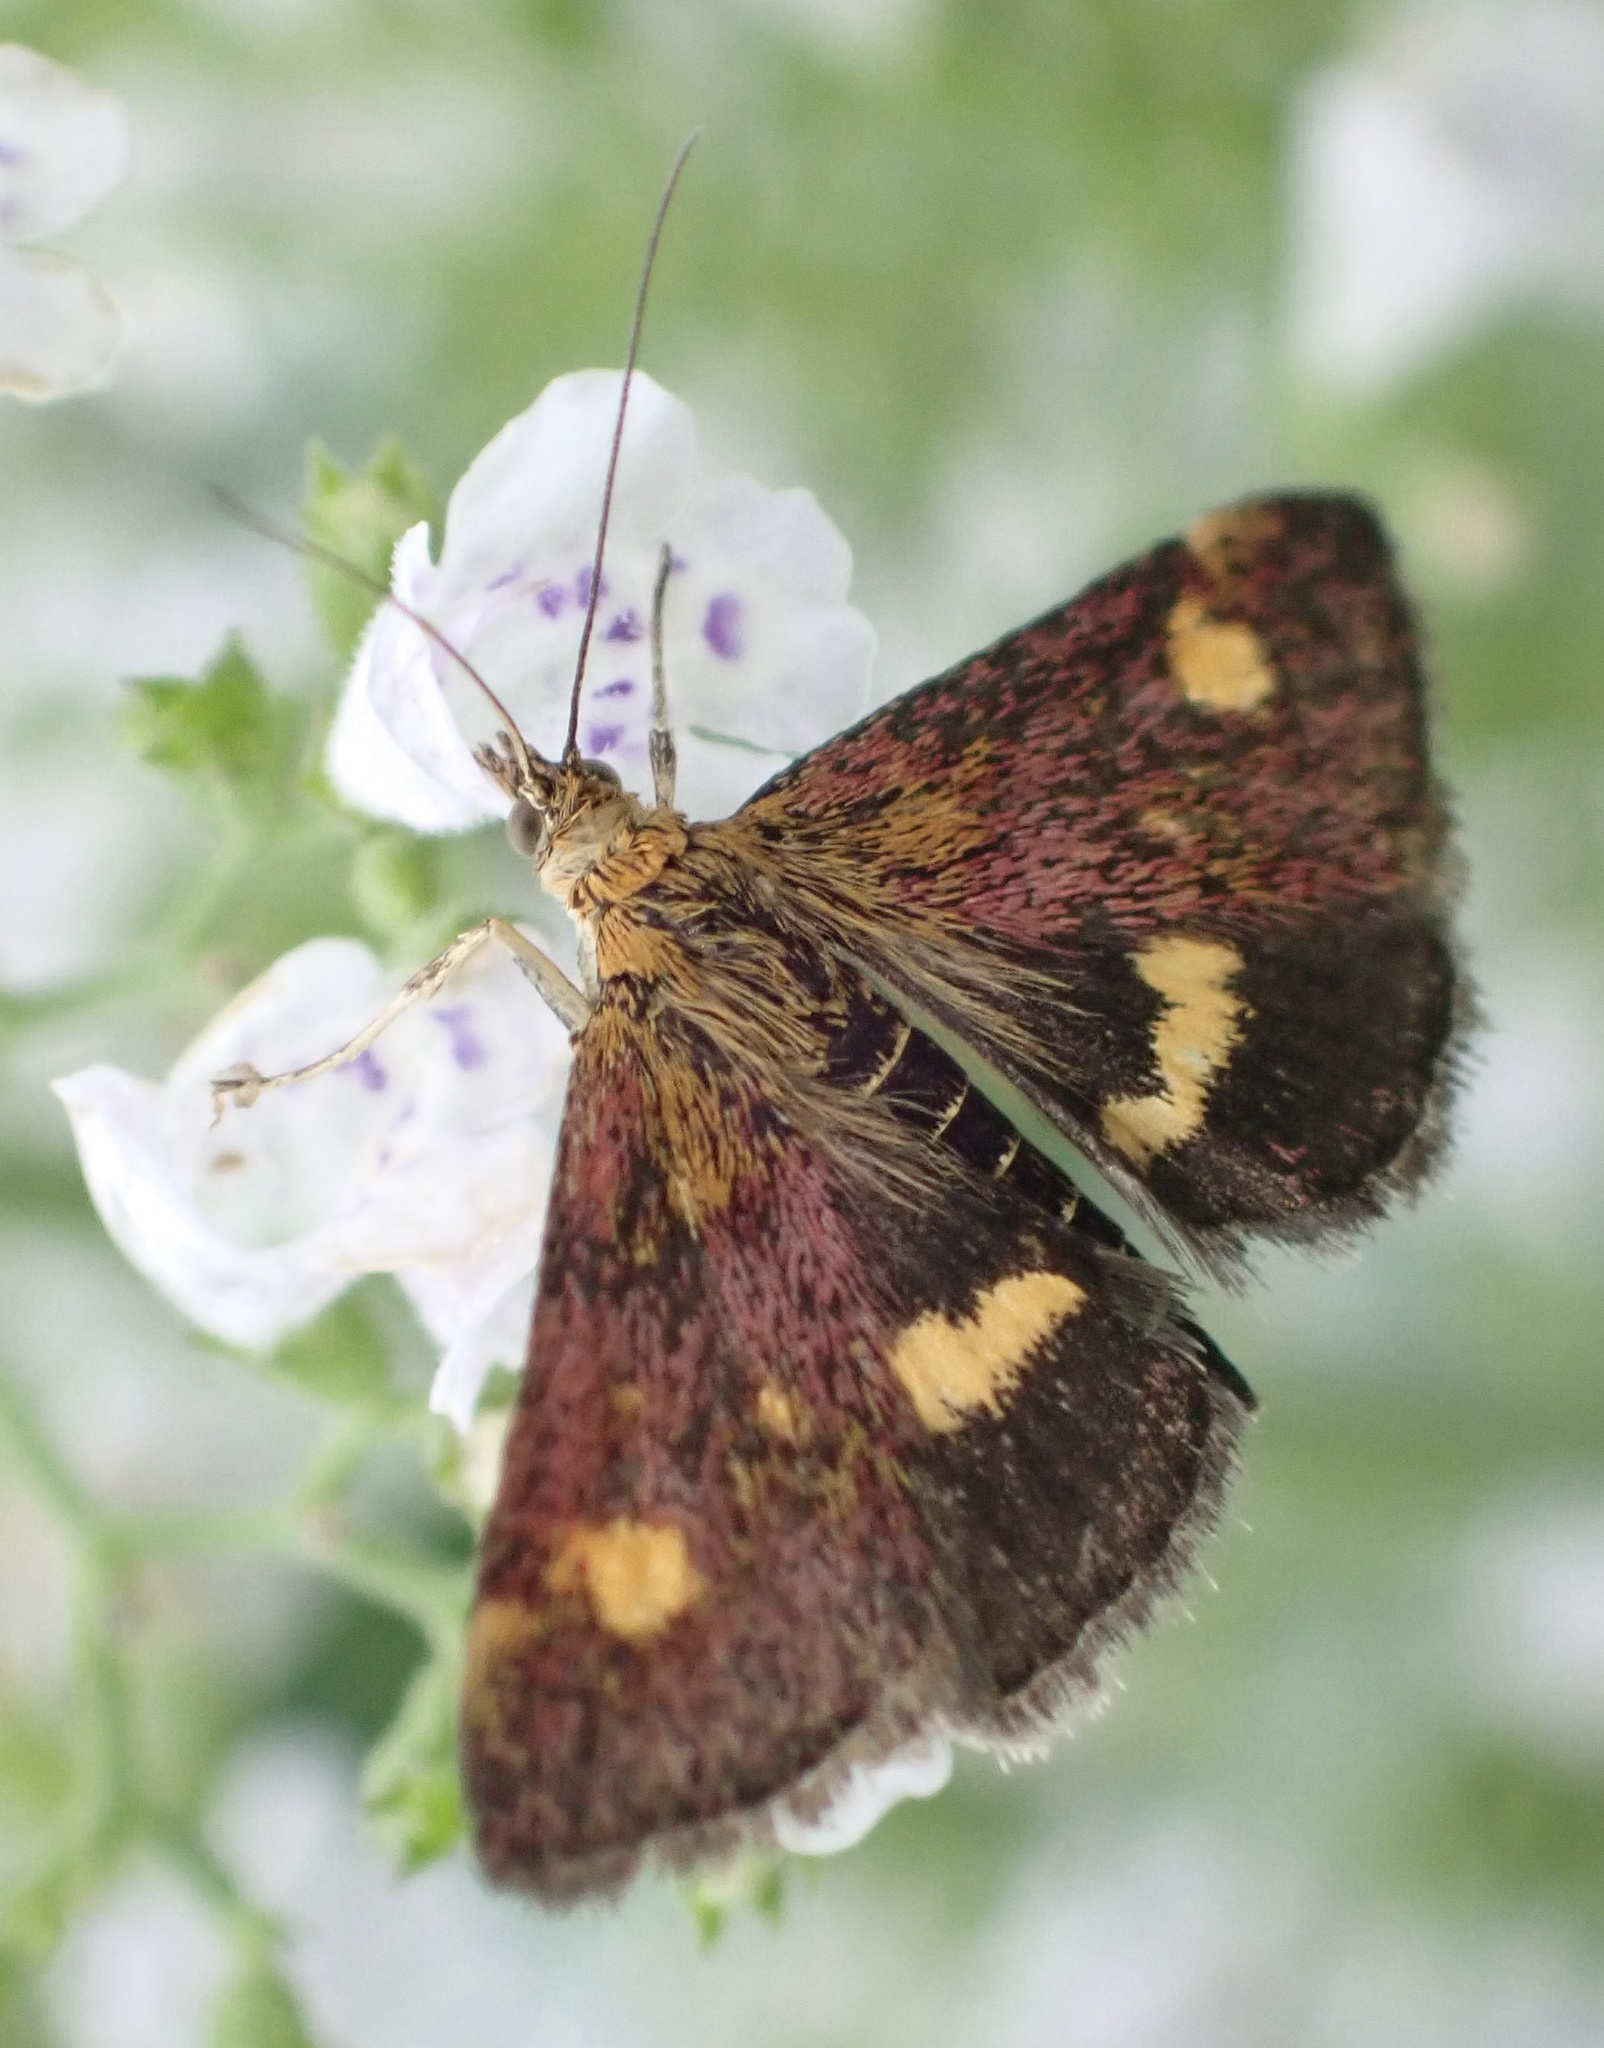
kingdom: Animalia
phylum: Arthropoda
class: Insecta
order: Lepidoptera
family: Crambidae
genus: Pyrausta
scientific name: Pyrausta aurata
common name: Small purple & gold
